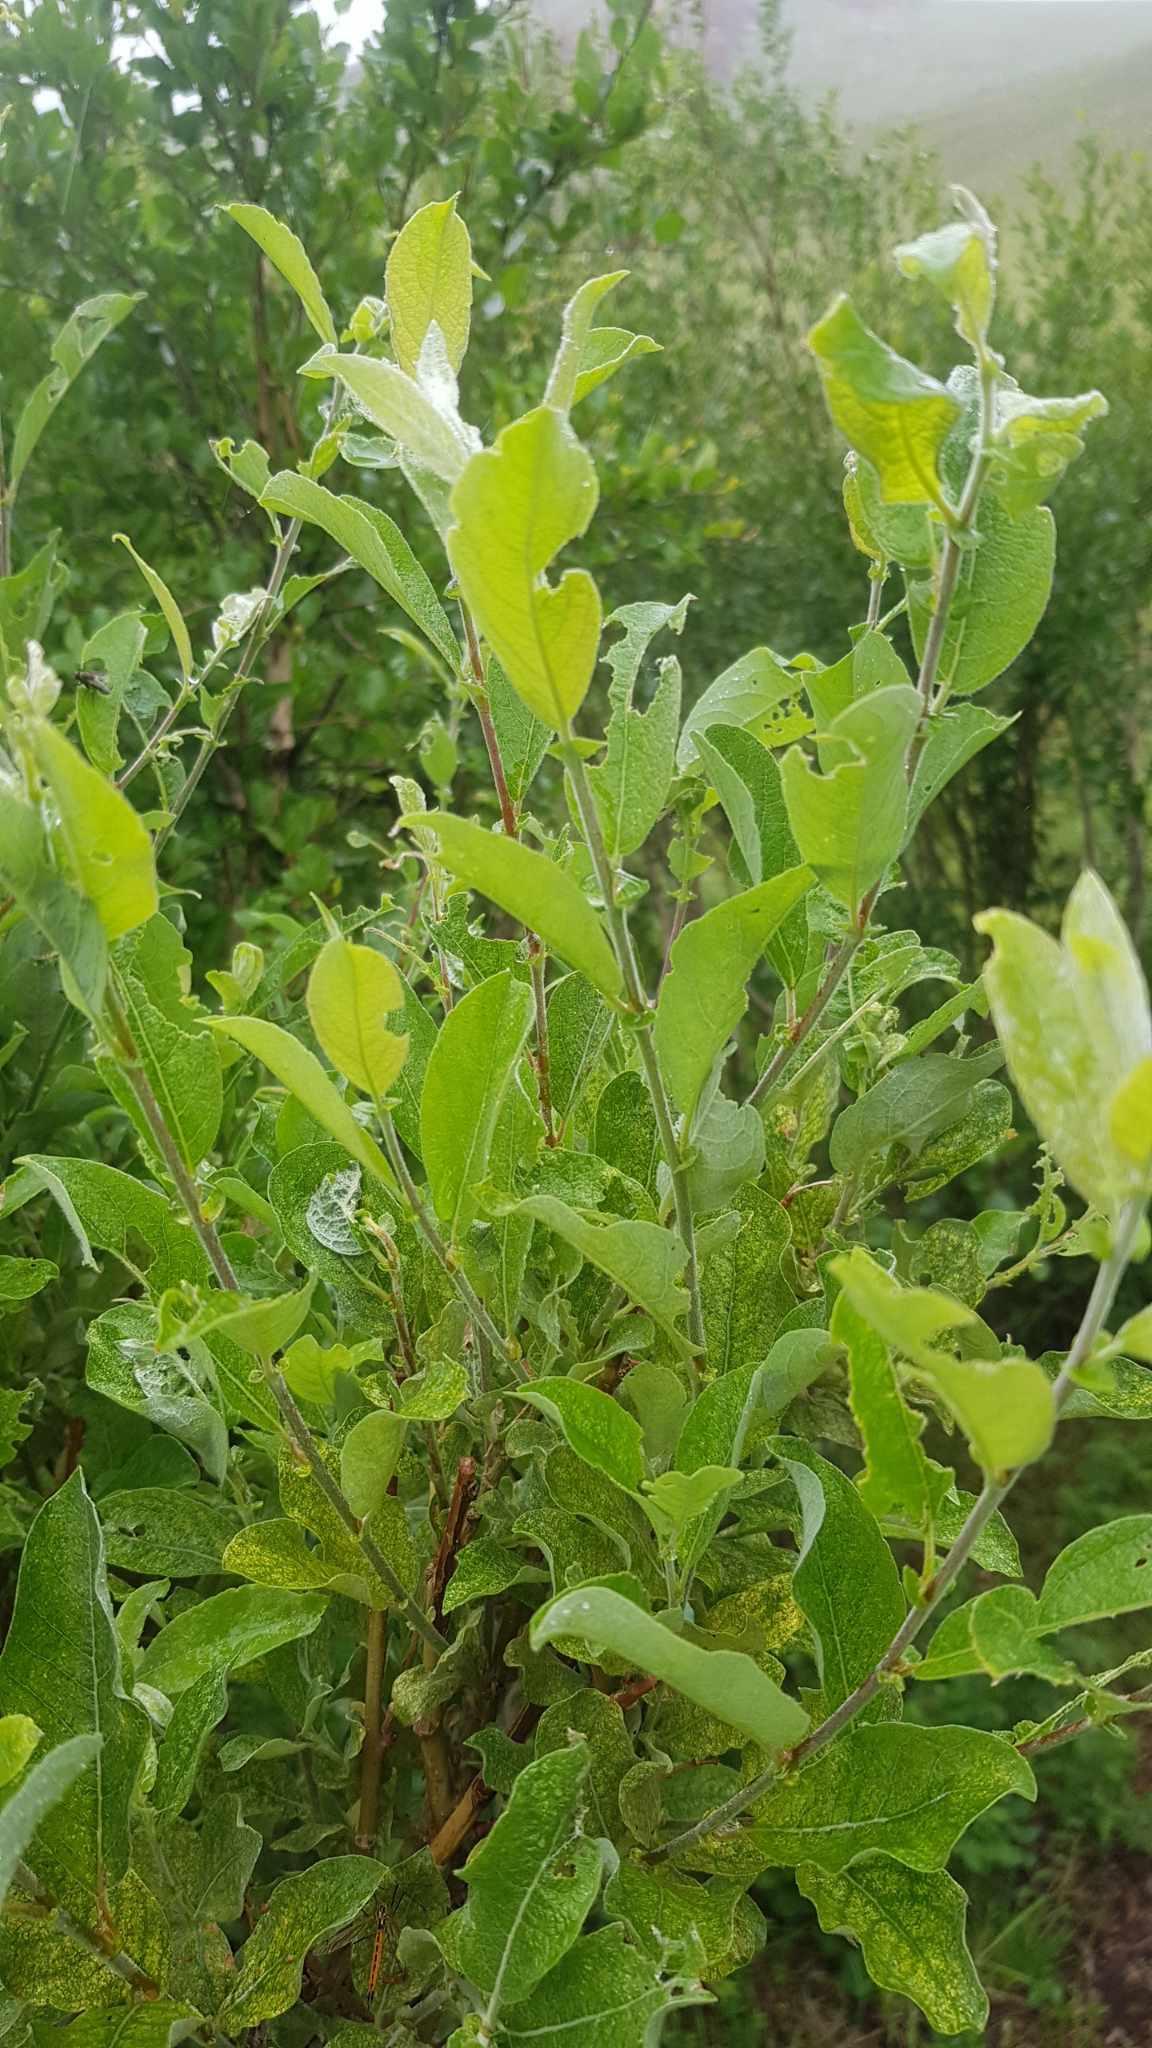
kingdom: Plantae
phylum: Tracheophyta
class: Magnoliopsida
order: Malpighiales
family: Salicaceae
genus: Salix
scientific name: Salix glauca
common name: Glaucous willow
